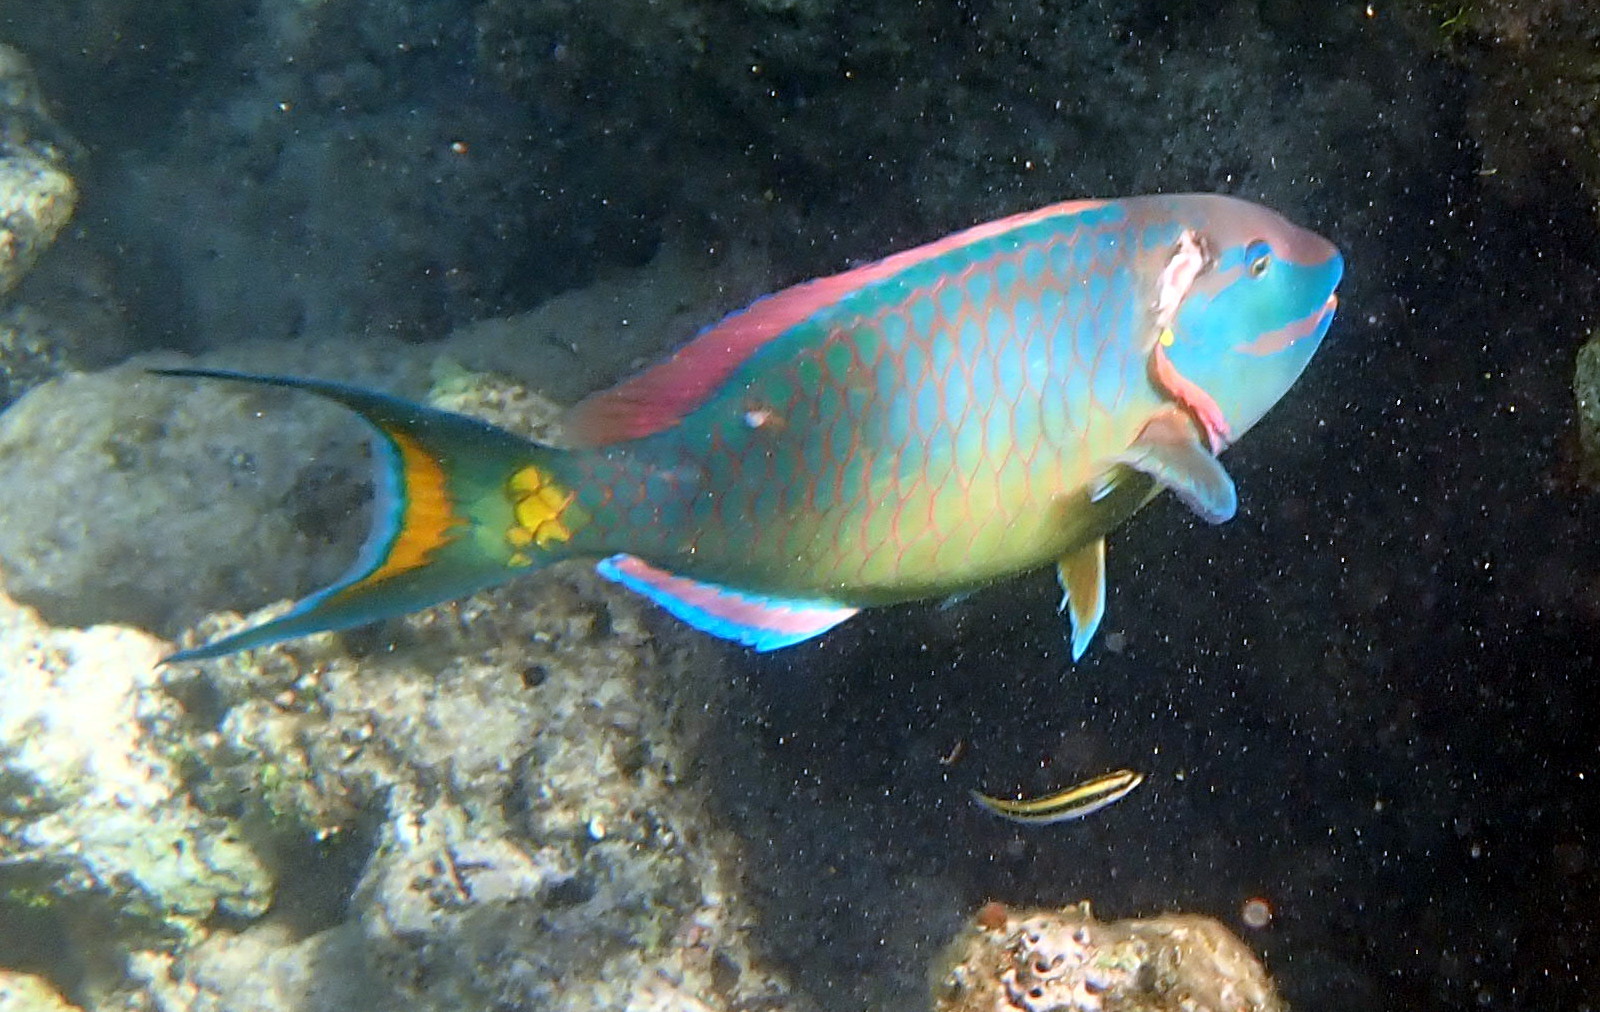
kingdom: Animalia
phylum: Chordata
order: Perciformes
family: Scaridae
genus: Sparisoma
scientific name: Sparisoma viride
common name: Stoplight parrotfish
